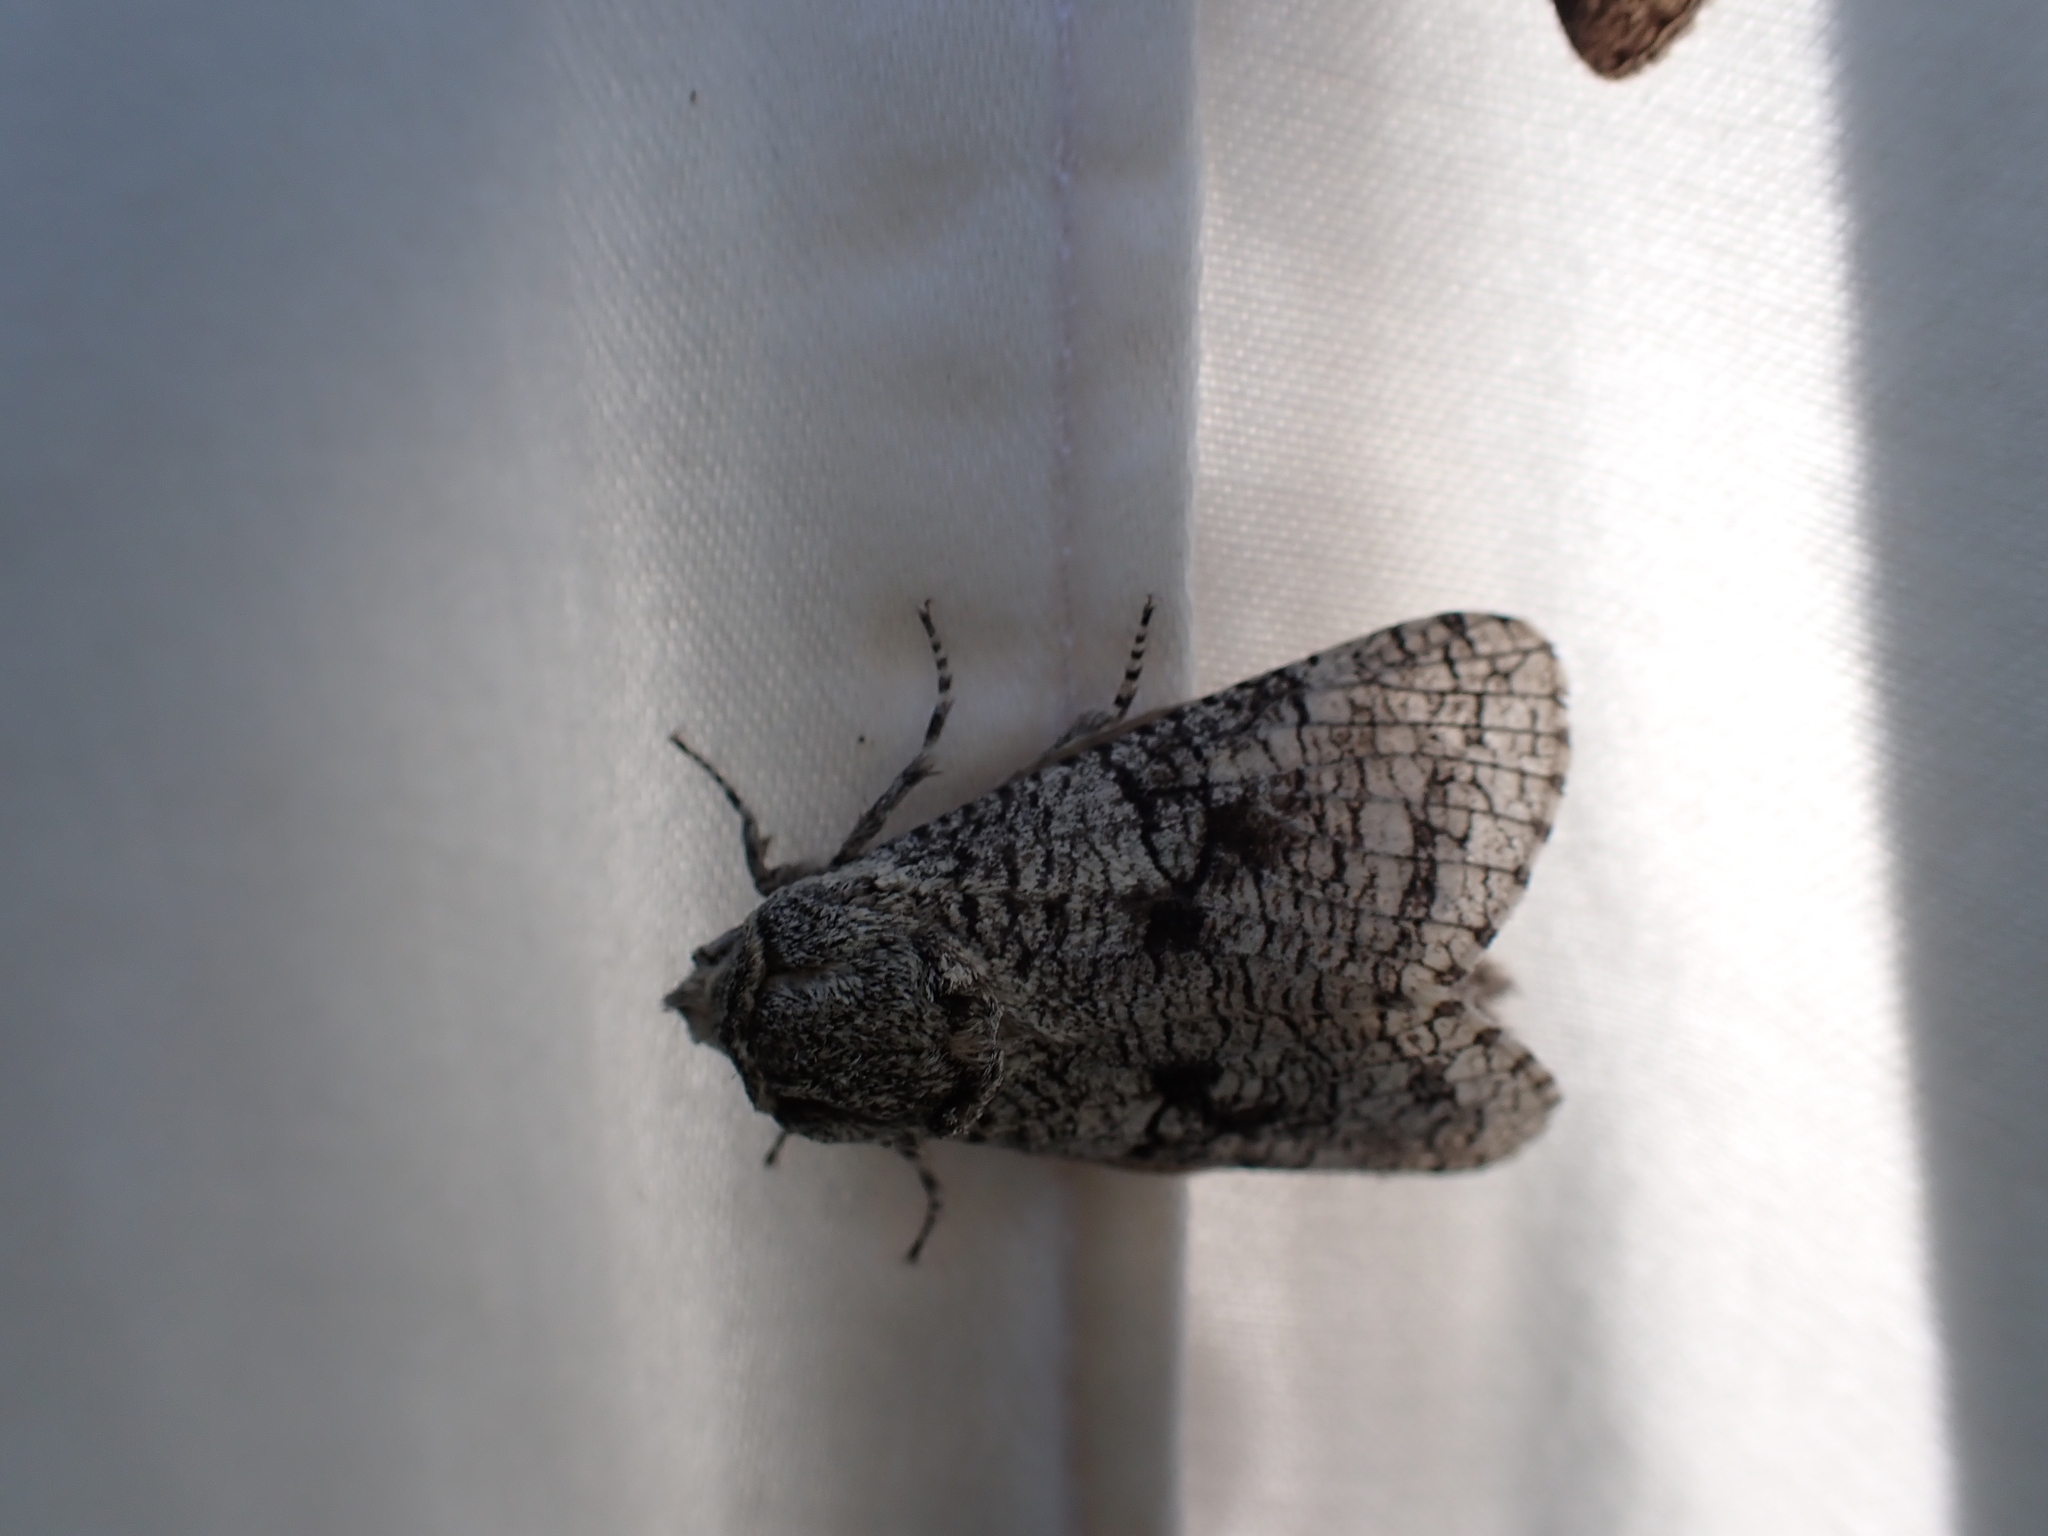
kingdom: Animalia
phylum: Arthropoda
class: Insecta
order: Lepidoptera
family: Cossidae
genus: Acossus
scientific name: Acossus populi
